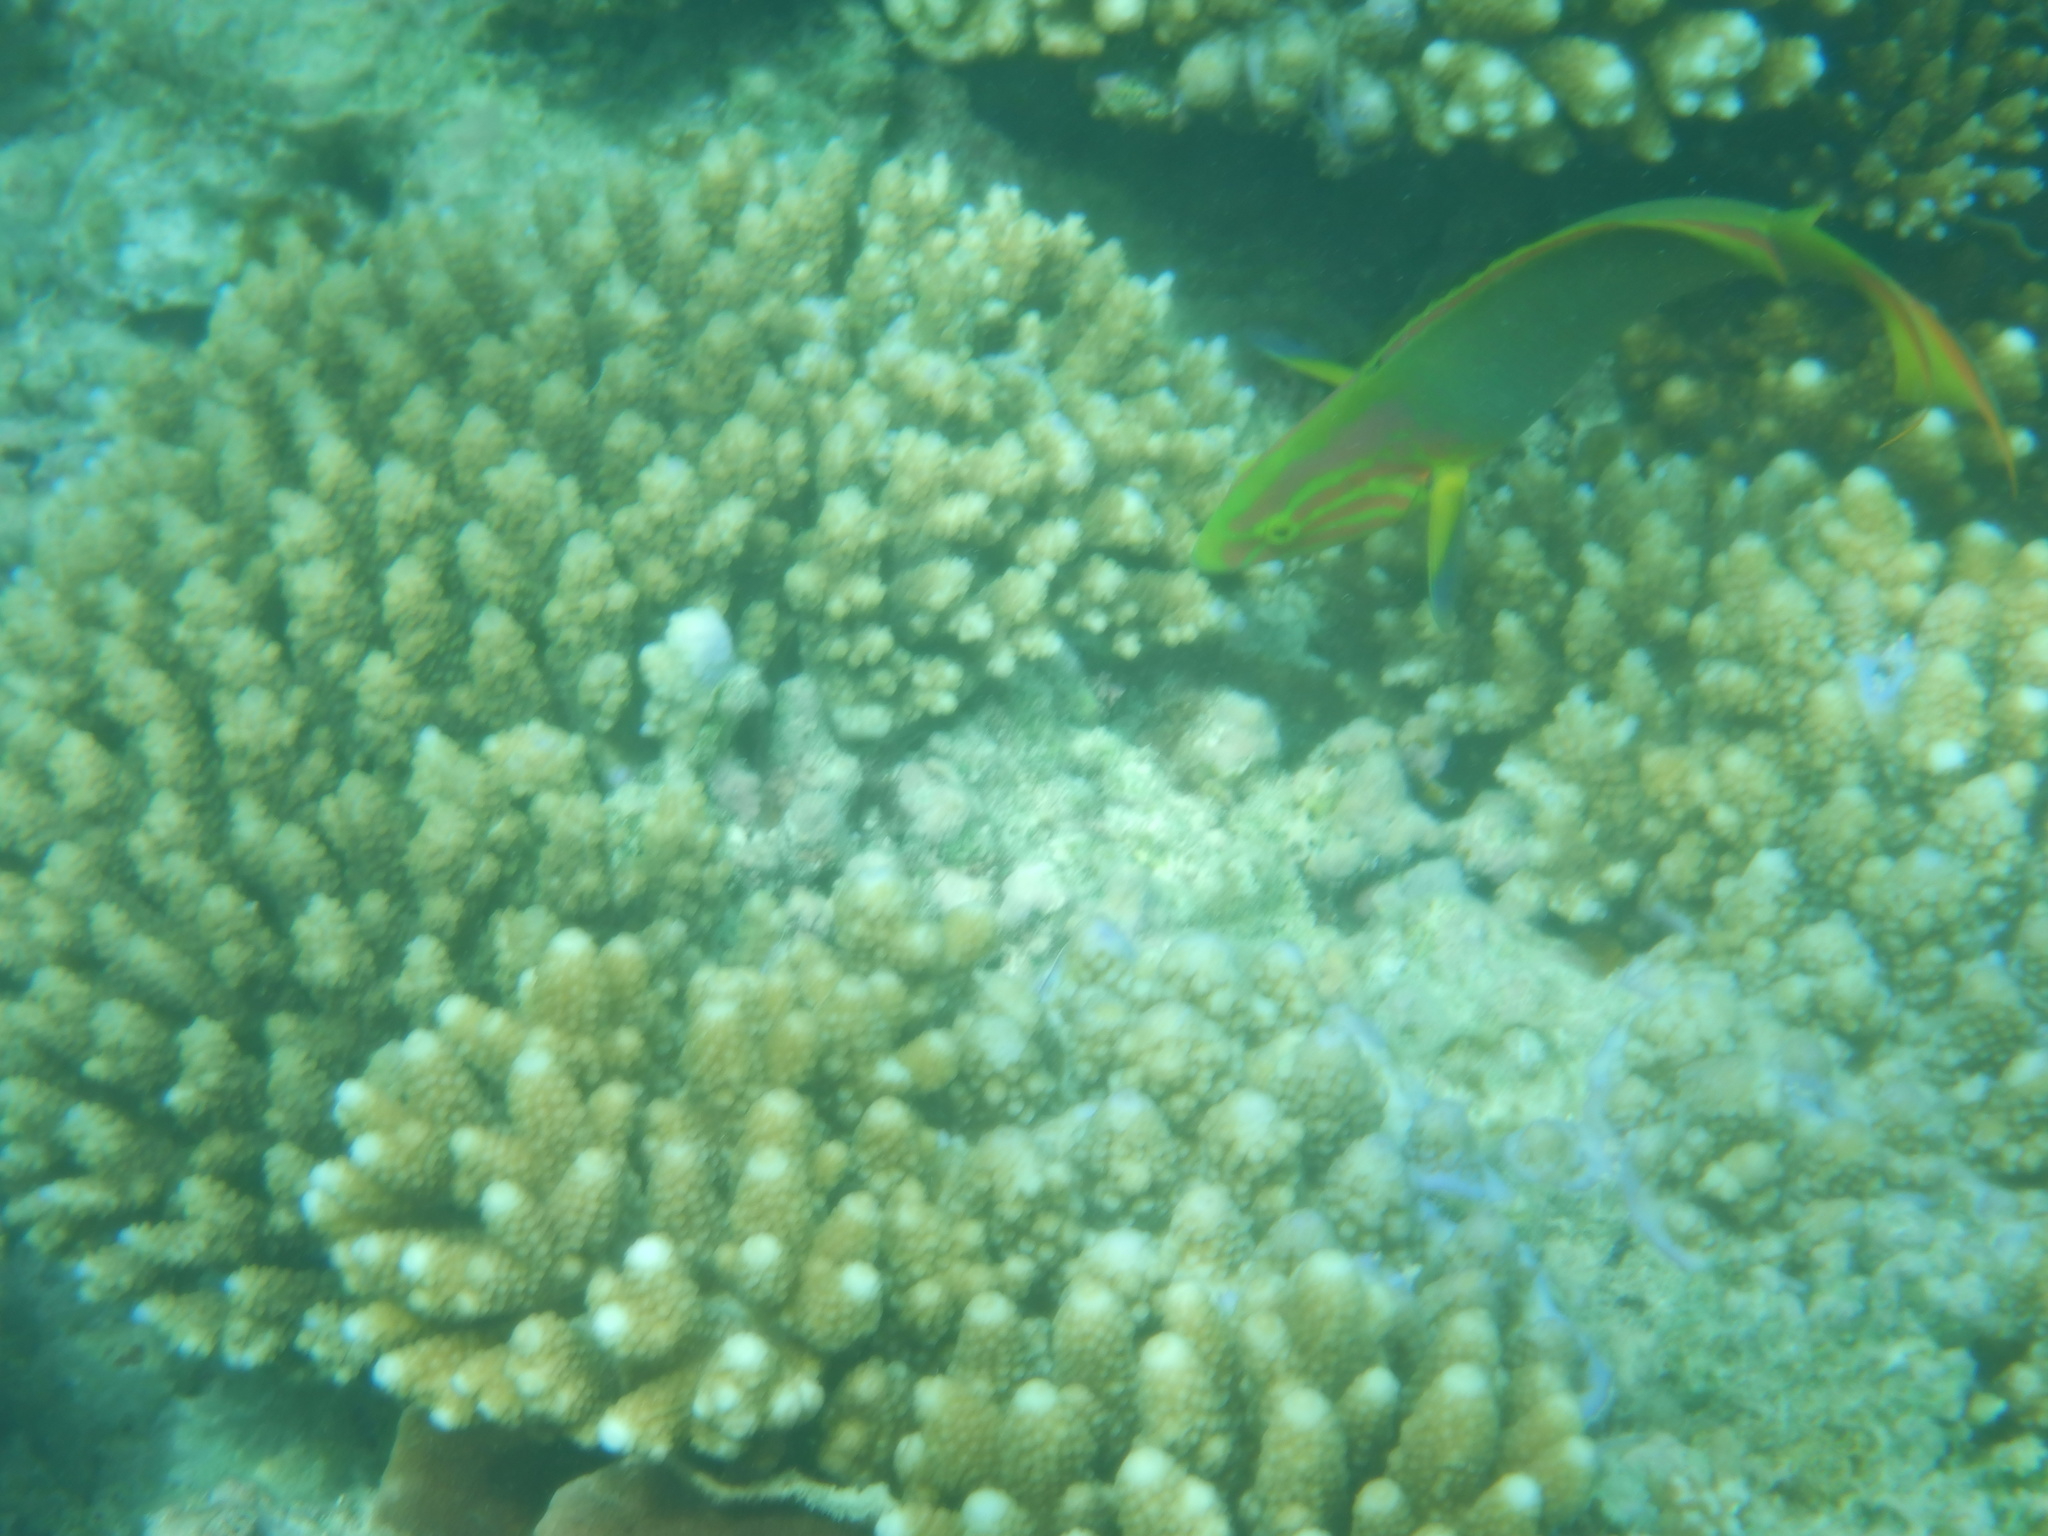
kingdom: Animalia
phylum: Chordata
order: Perciformes
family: Labridae
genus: Thalassoma
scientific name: Thalassoma lutescens
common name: Green moon wrasse
